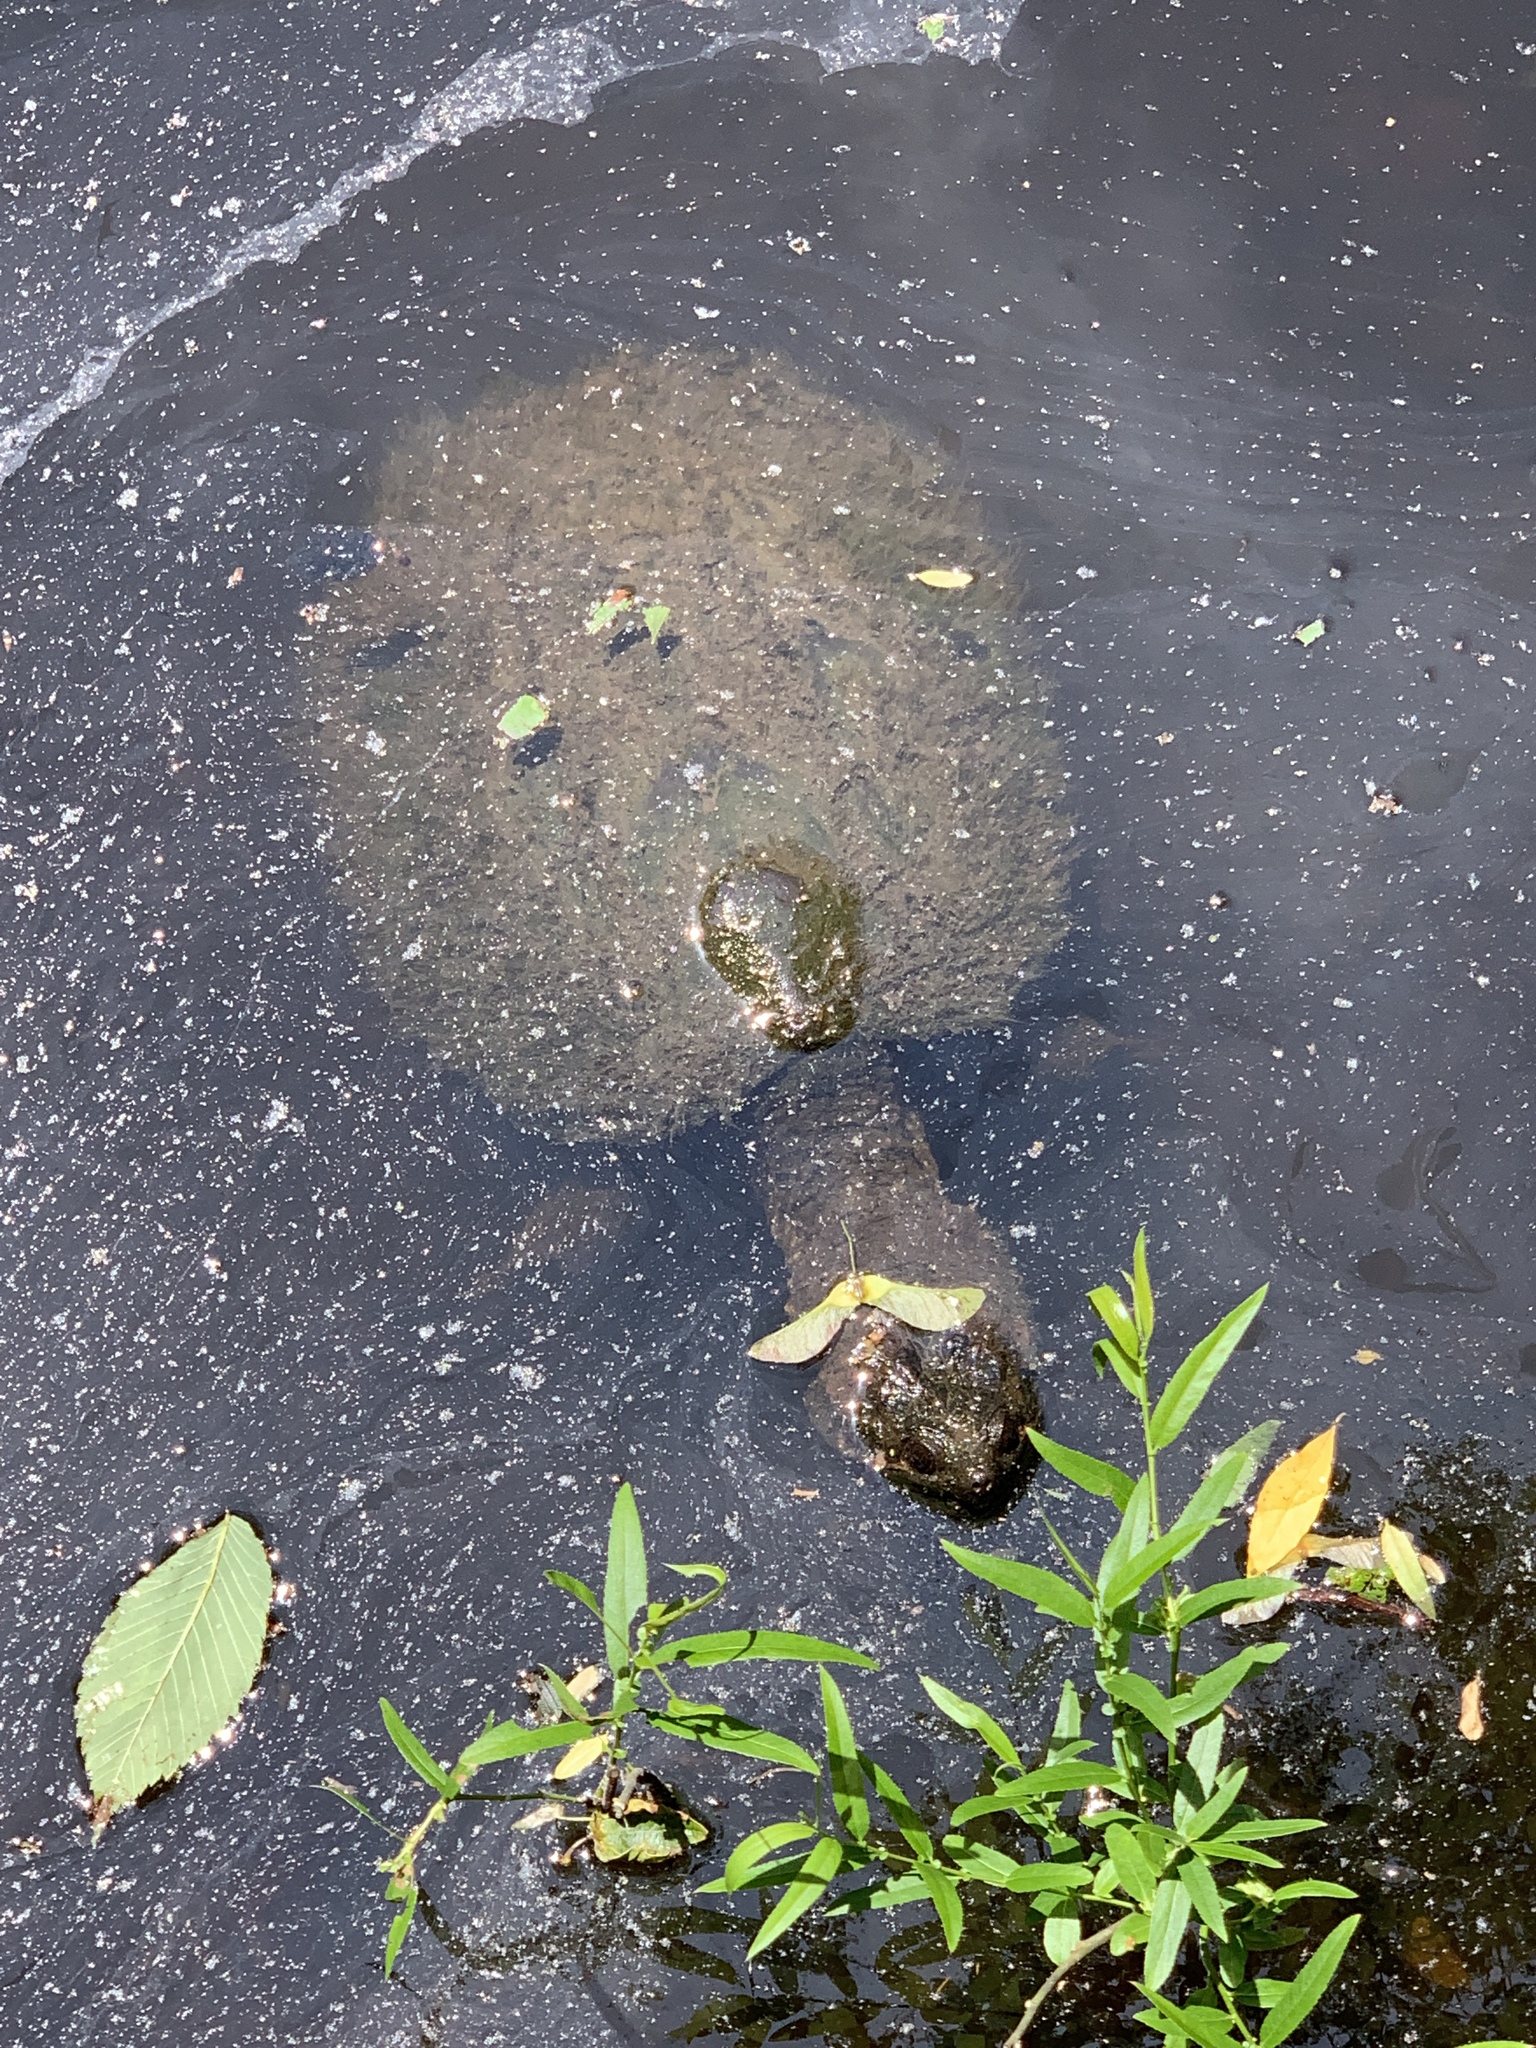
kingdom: Animalia
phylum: Chordata
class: Testudines
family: Chelydridae
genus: Chelydra
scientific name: Chelydra serpentina
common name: Common snapping turtle
